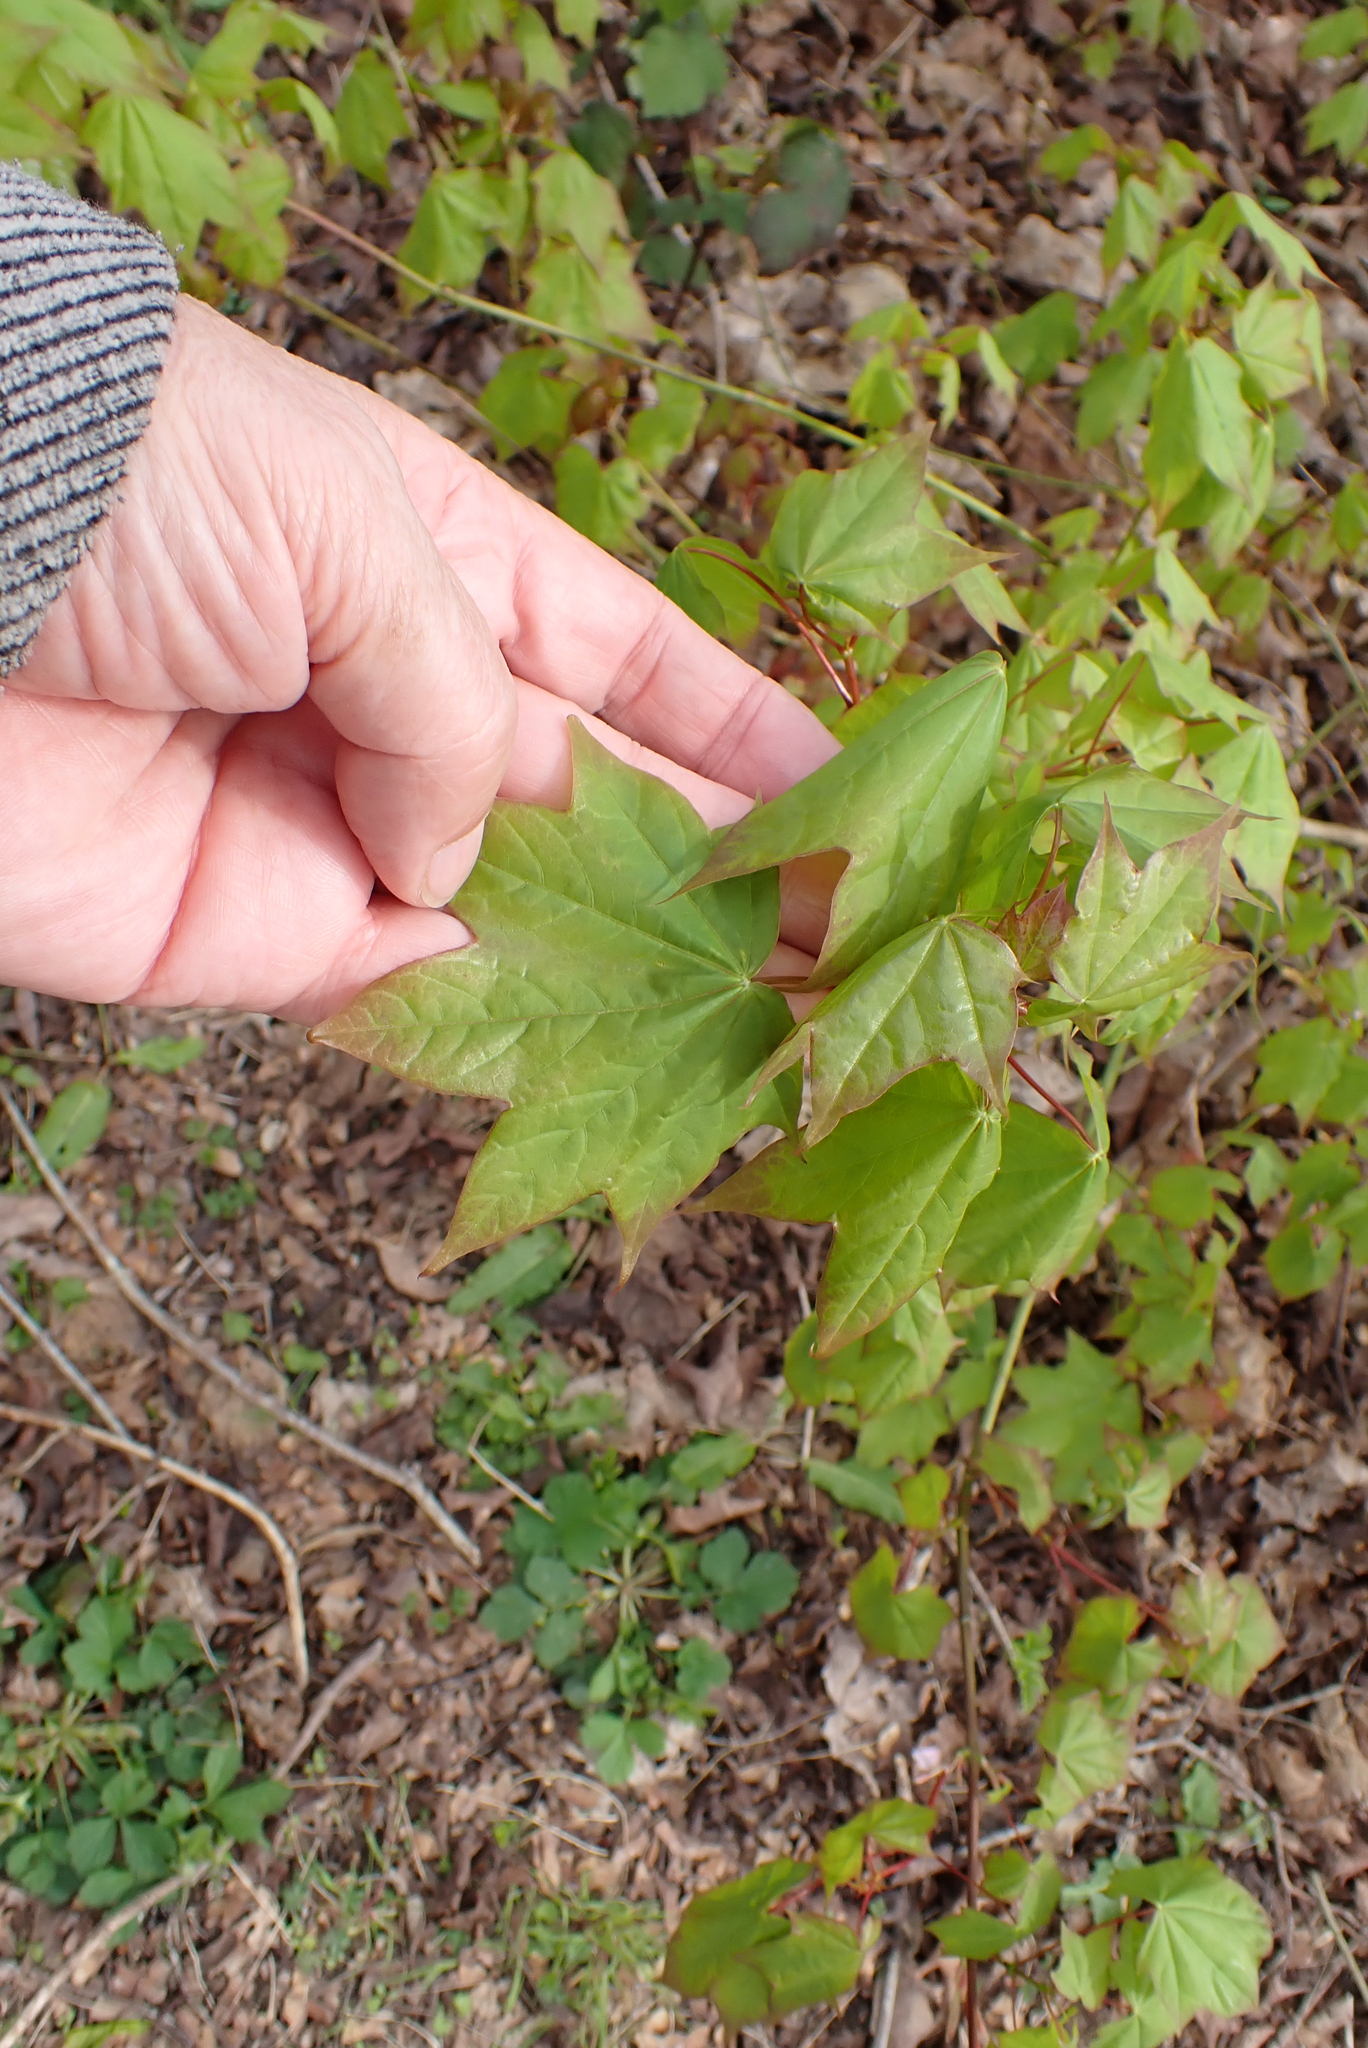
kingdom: Plantae
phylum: Tracheophyta
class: Magnoliopsida
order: Sapindales
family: Sapindaceae
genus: Acer
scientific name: Acer cappadocicum
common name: Cappadocian maple
